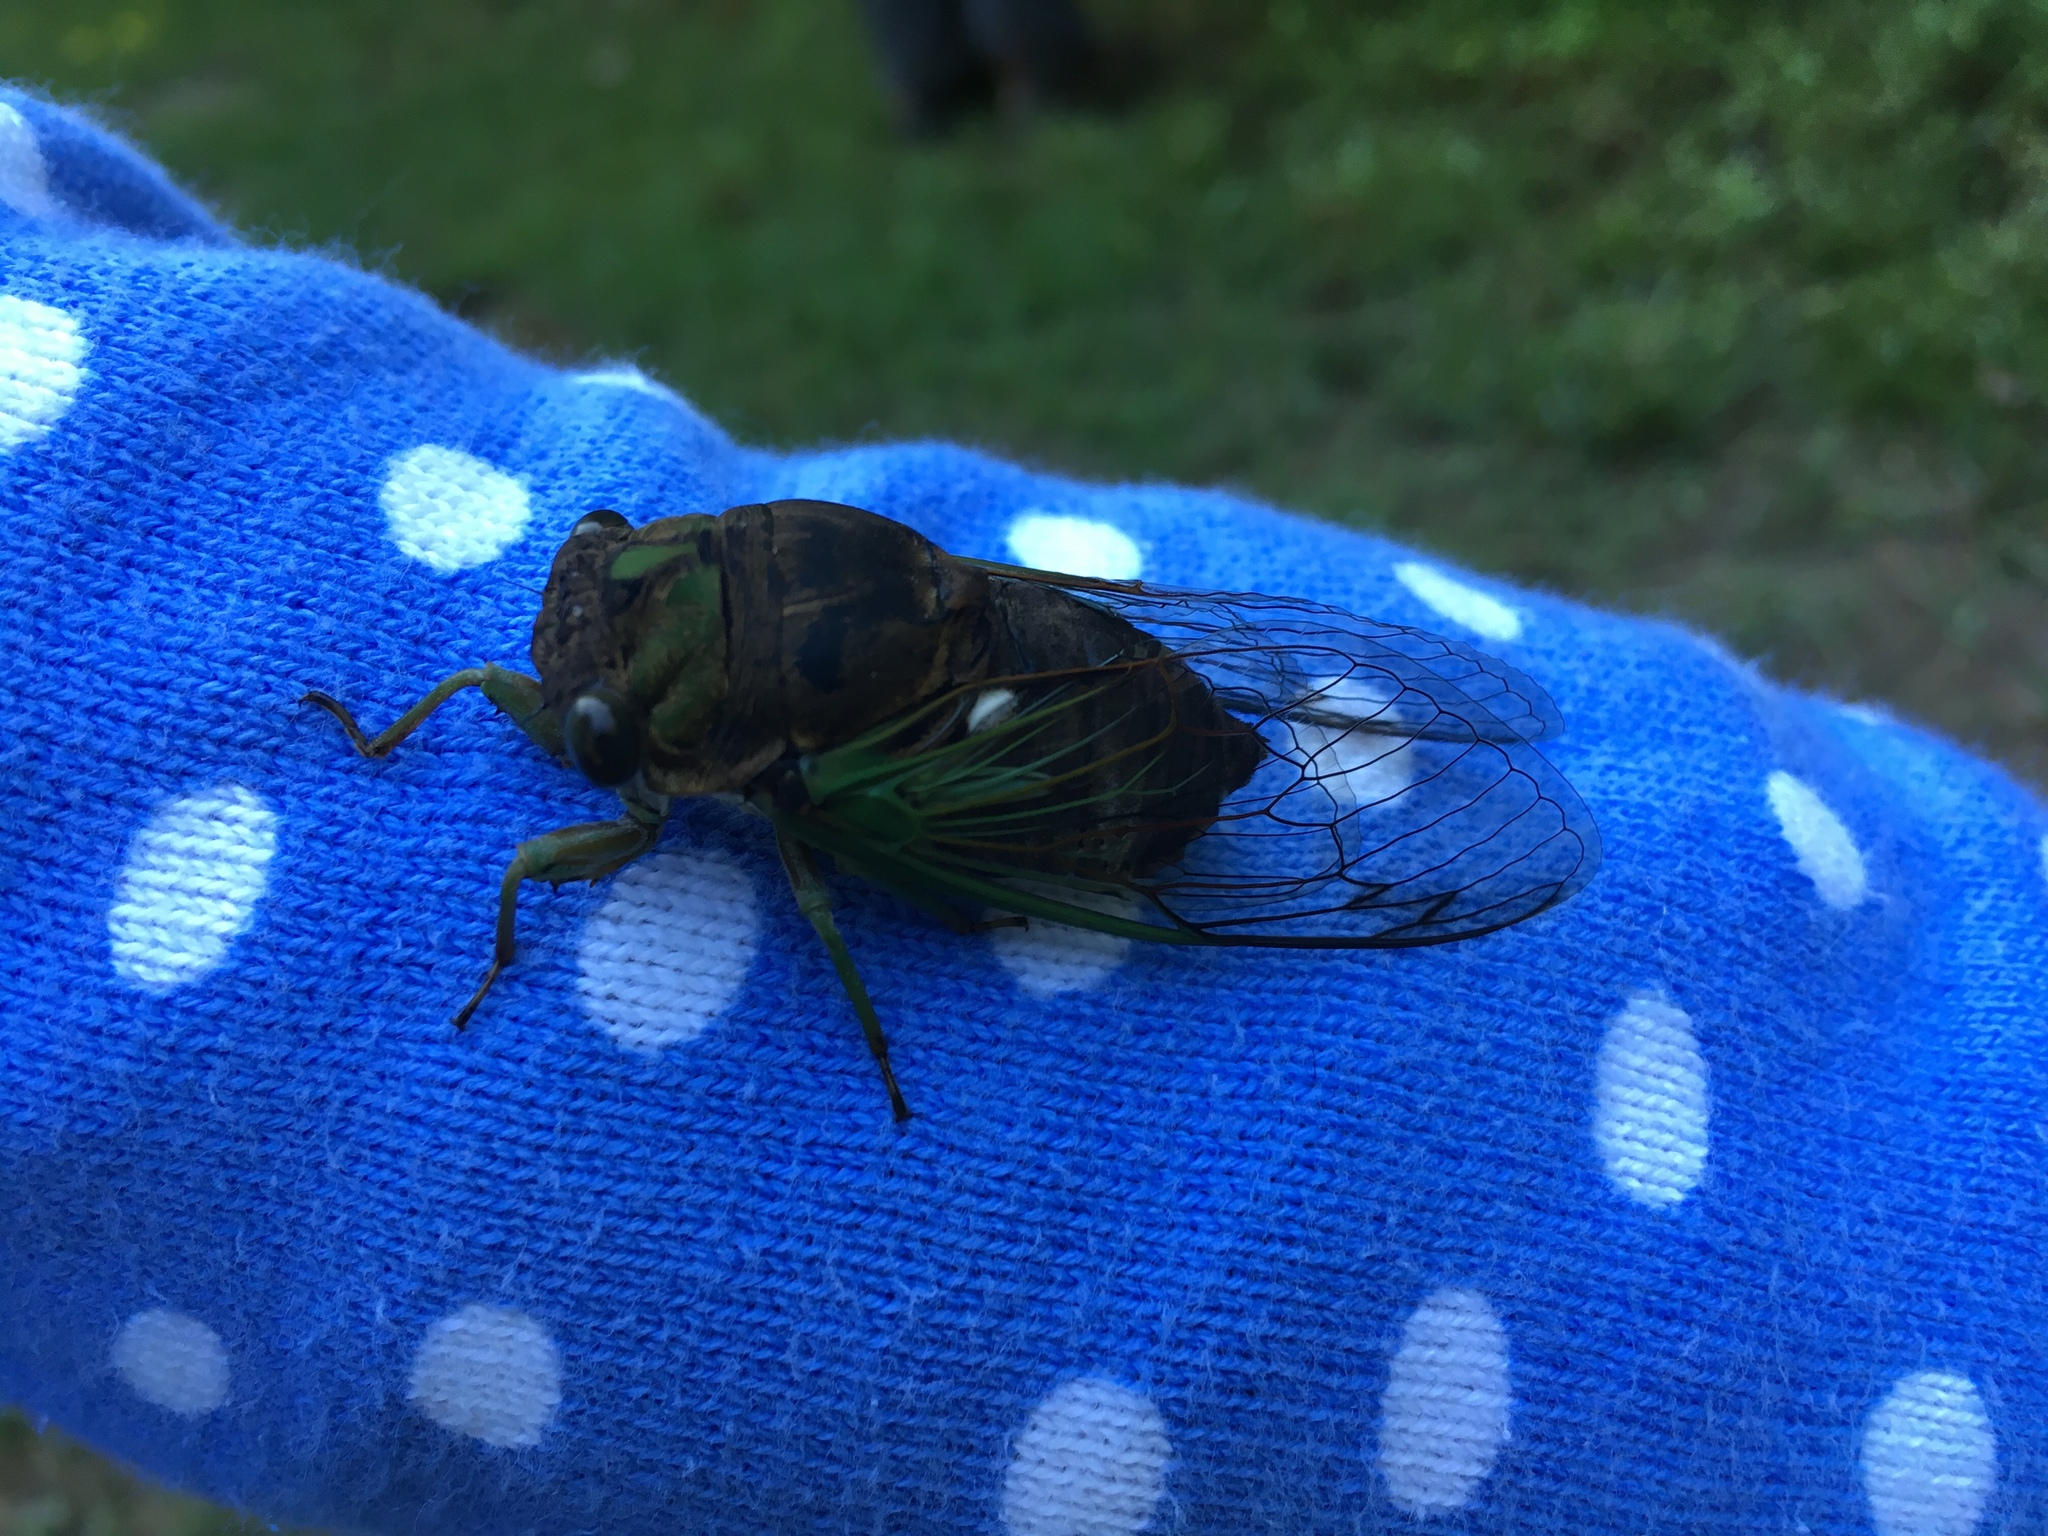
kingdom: Animalia
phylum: Arthropoda
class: Insecta
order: Hemiptera
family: Cicadidae
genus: Neotibicen
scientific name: Neotibicen tibicen
